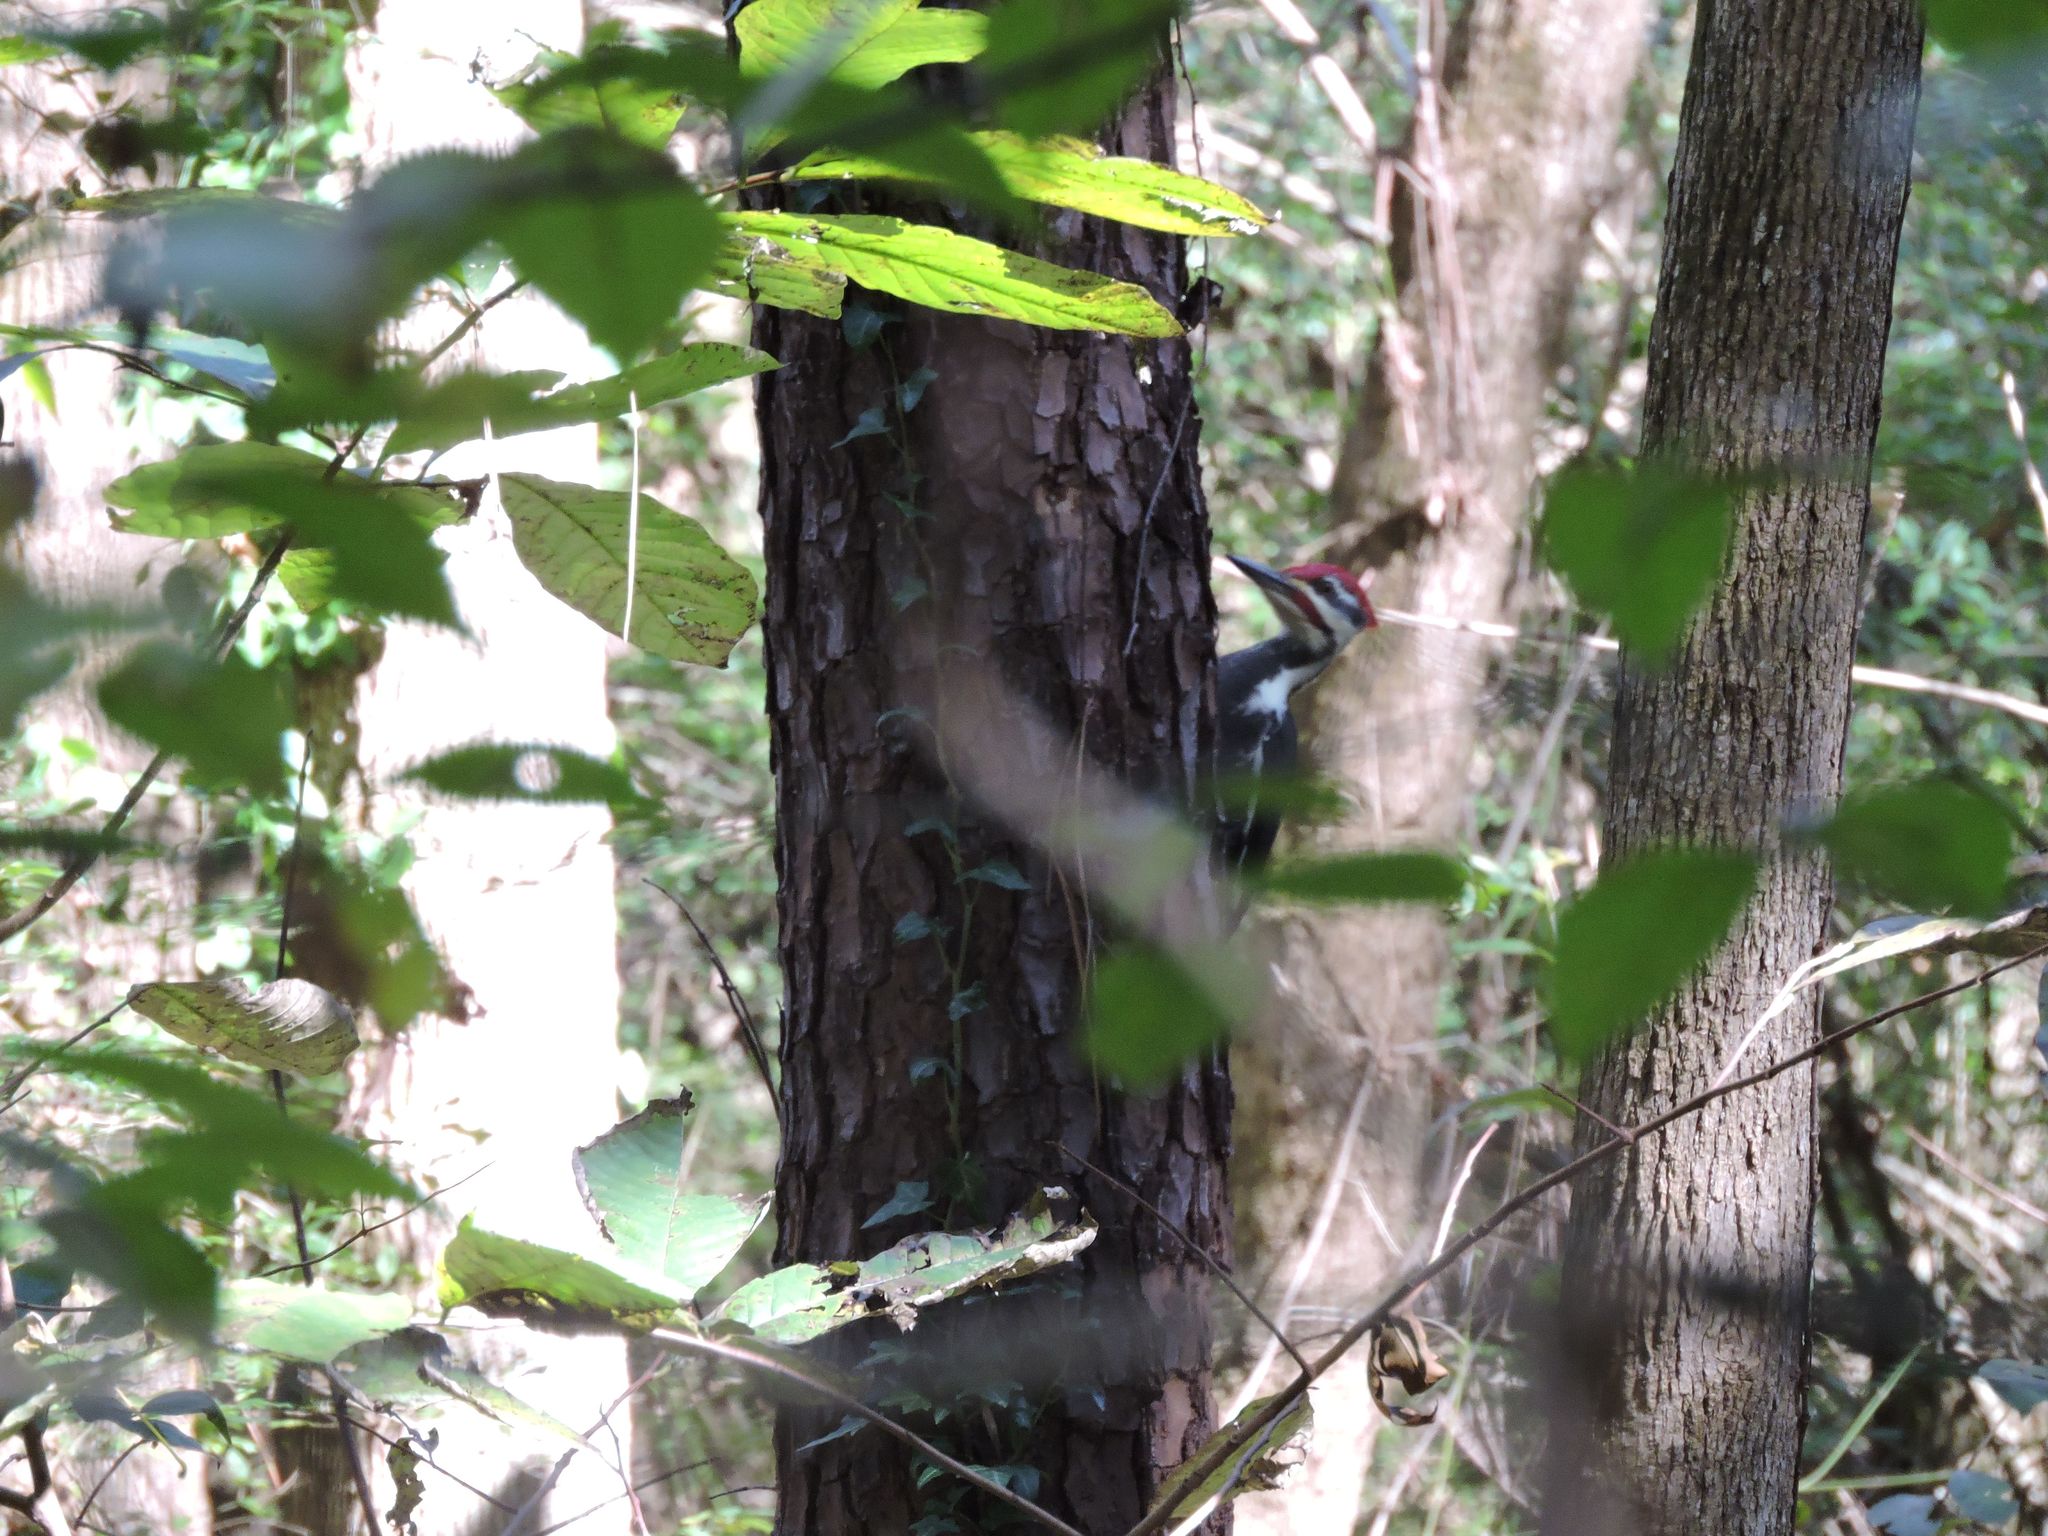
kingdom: Animalia
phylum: Chordata
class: Aves
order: Piciformes
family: Picidae
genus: Dryocopus
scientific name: Dryocopus pileatus
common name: Pileated woodpecker
